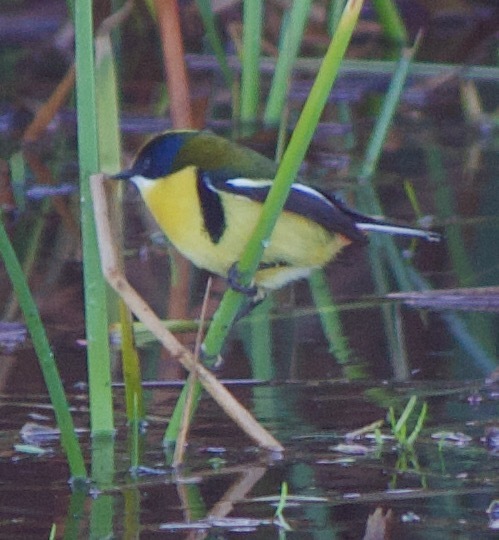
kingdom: Animalia
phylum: Chordata
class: Aves
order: Passeriformes
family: Tyrannidae
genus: Tachuris
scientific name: Tachuris rubrigastra
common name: Many-colored rush tyrant
